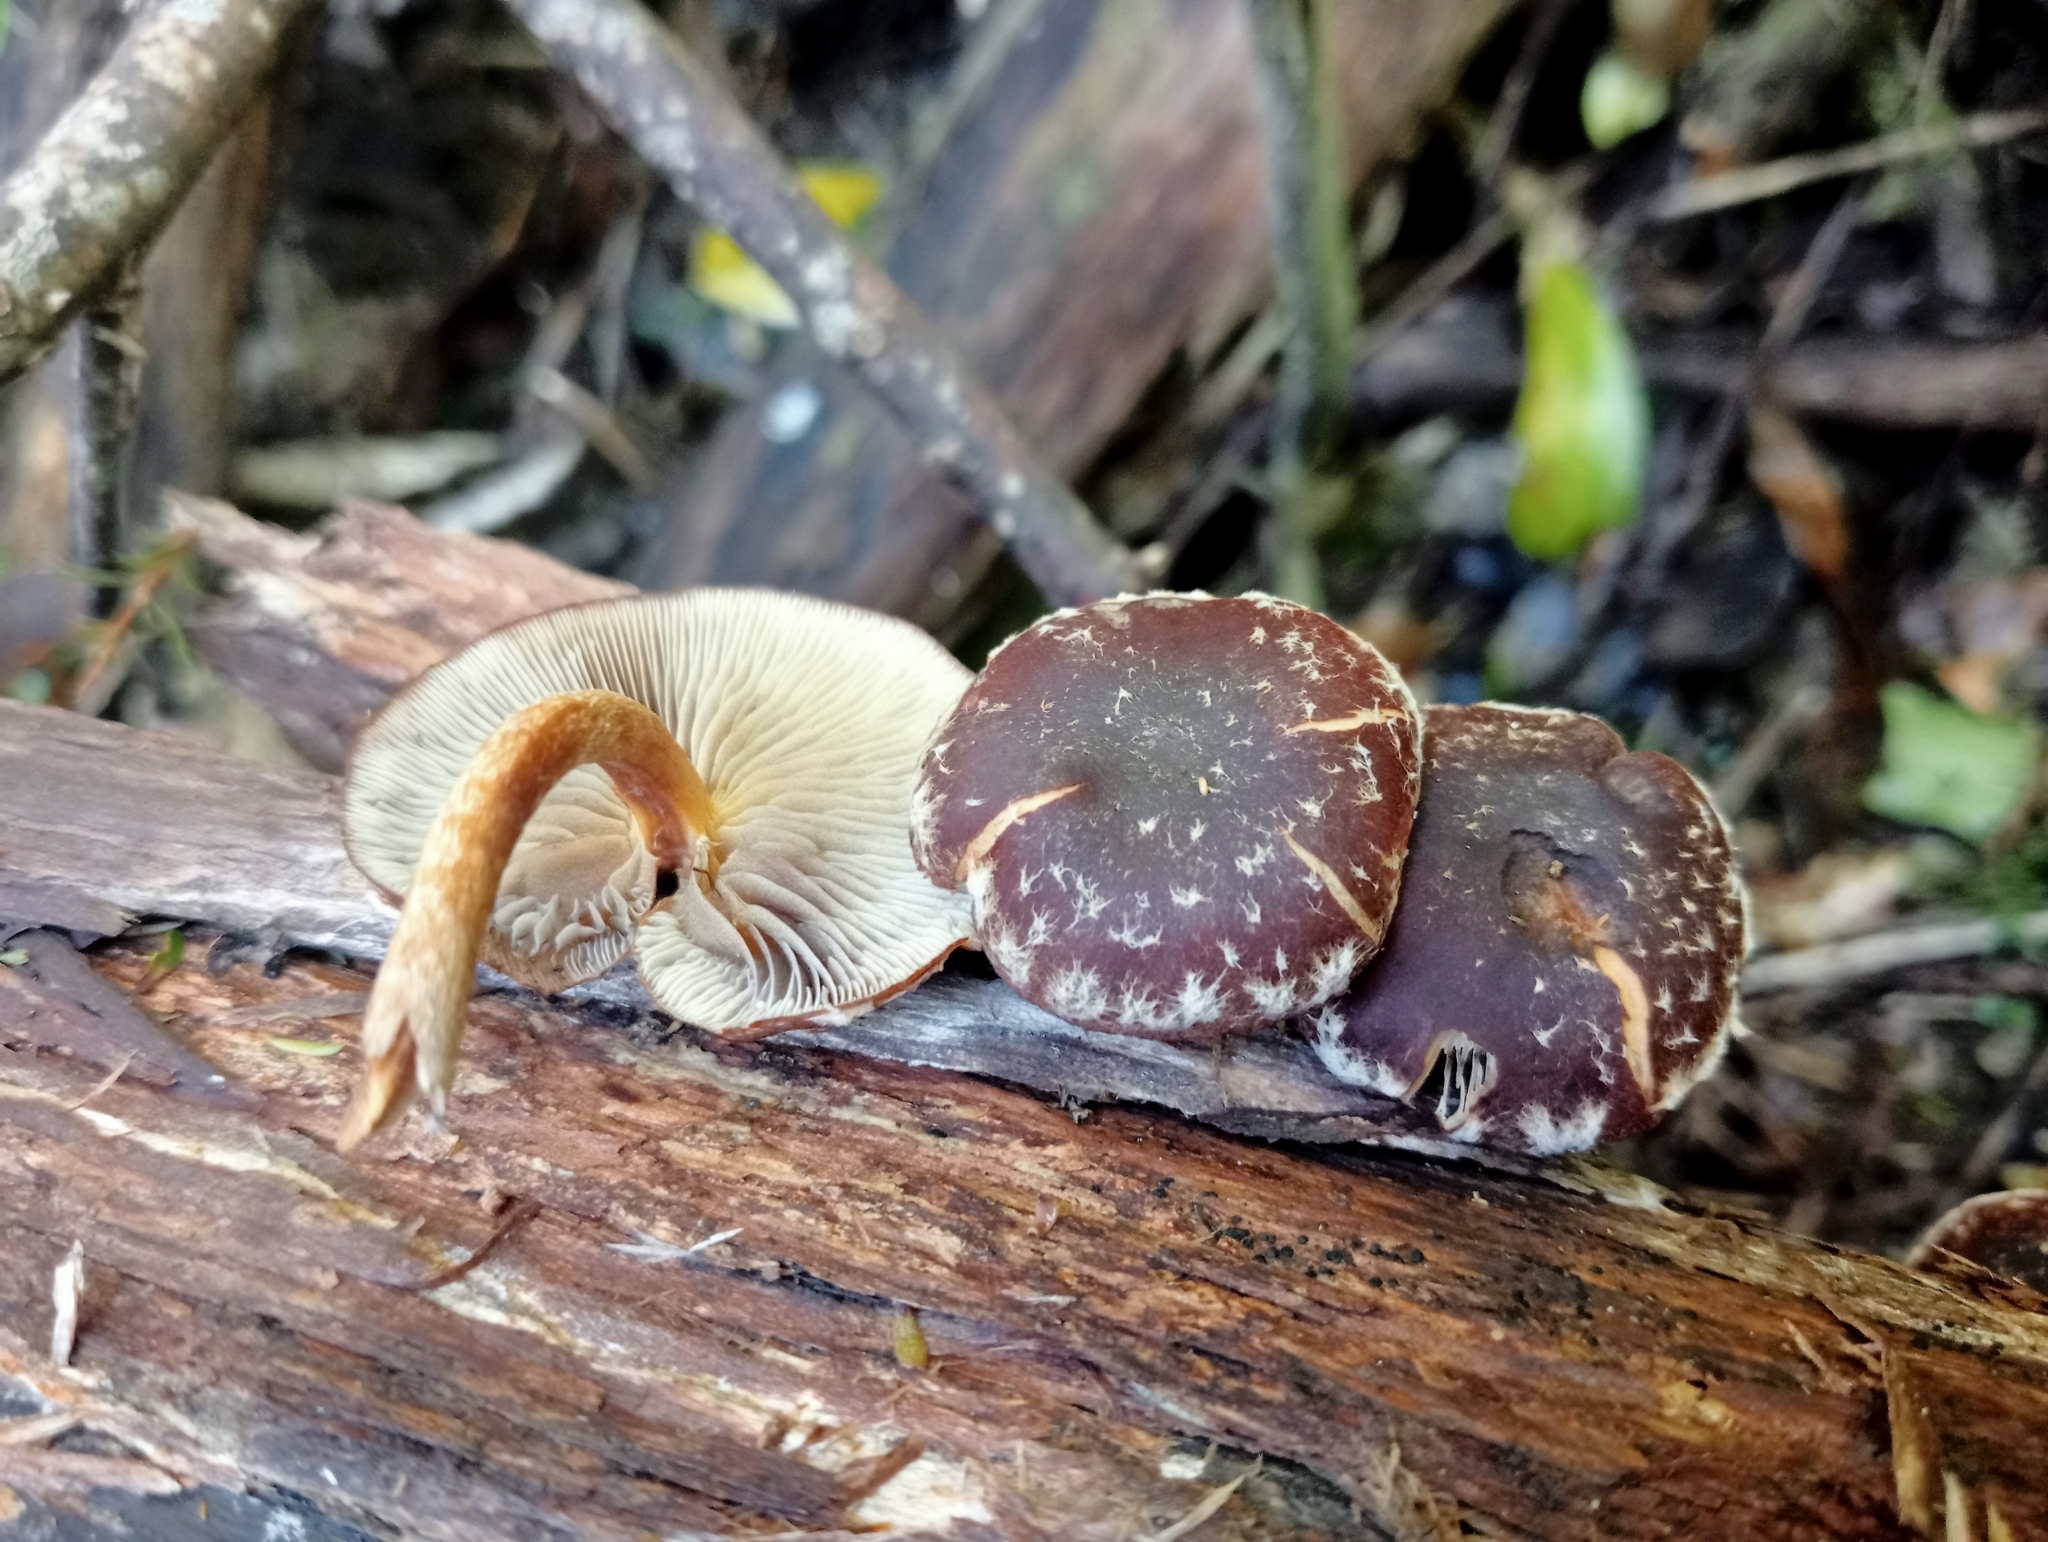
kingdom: Fungi
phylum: Basidiomycota
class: Agaricomycetes
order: Agaricales
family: Strophariaceae
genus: Hypholoma
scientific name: Hypholoma brunneum
